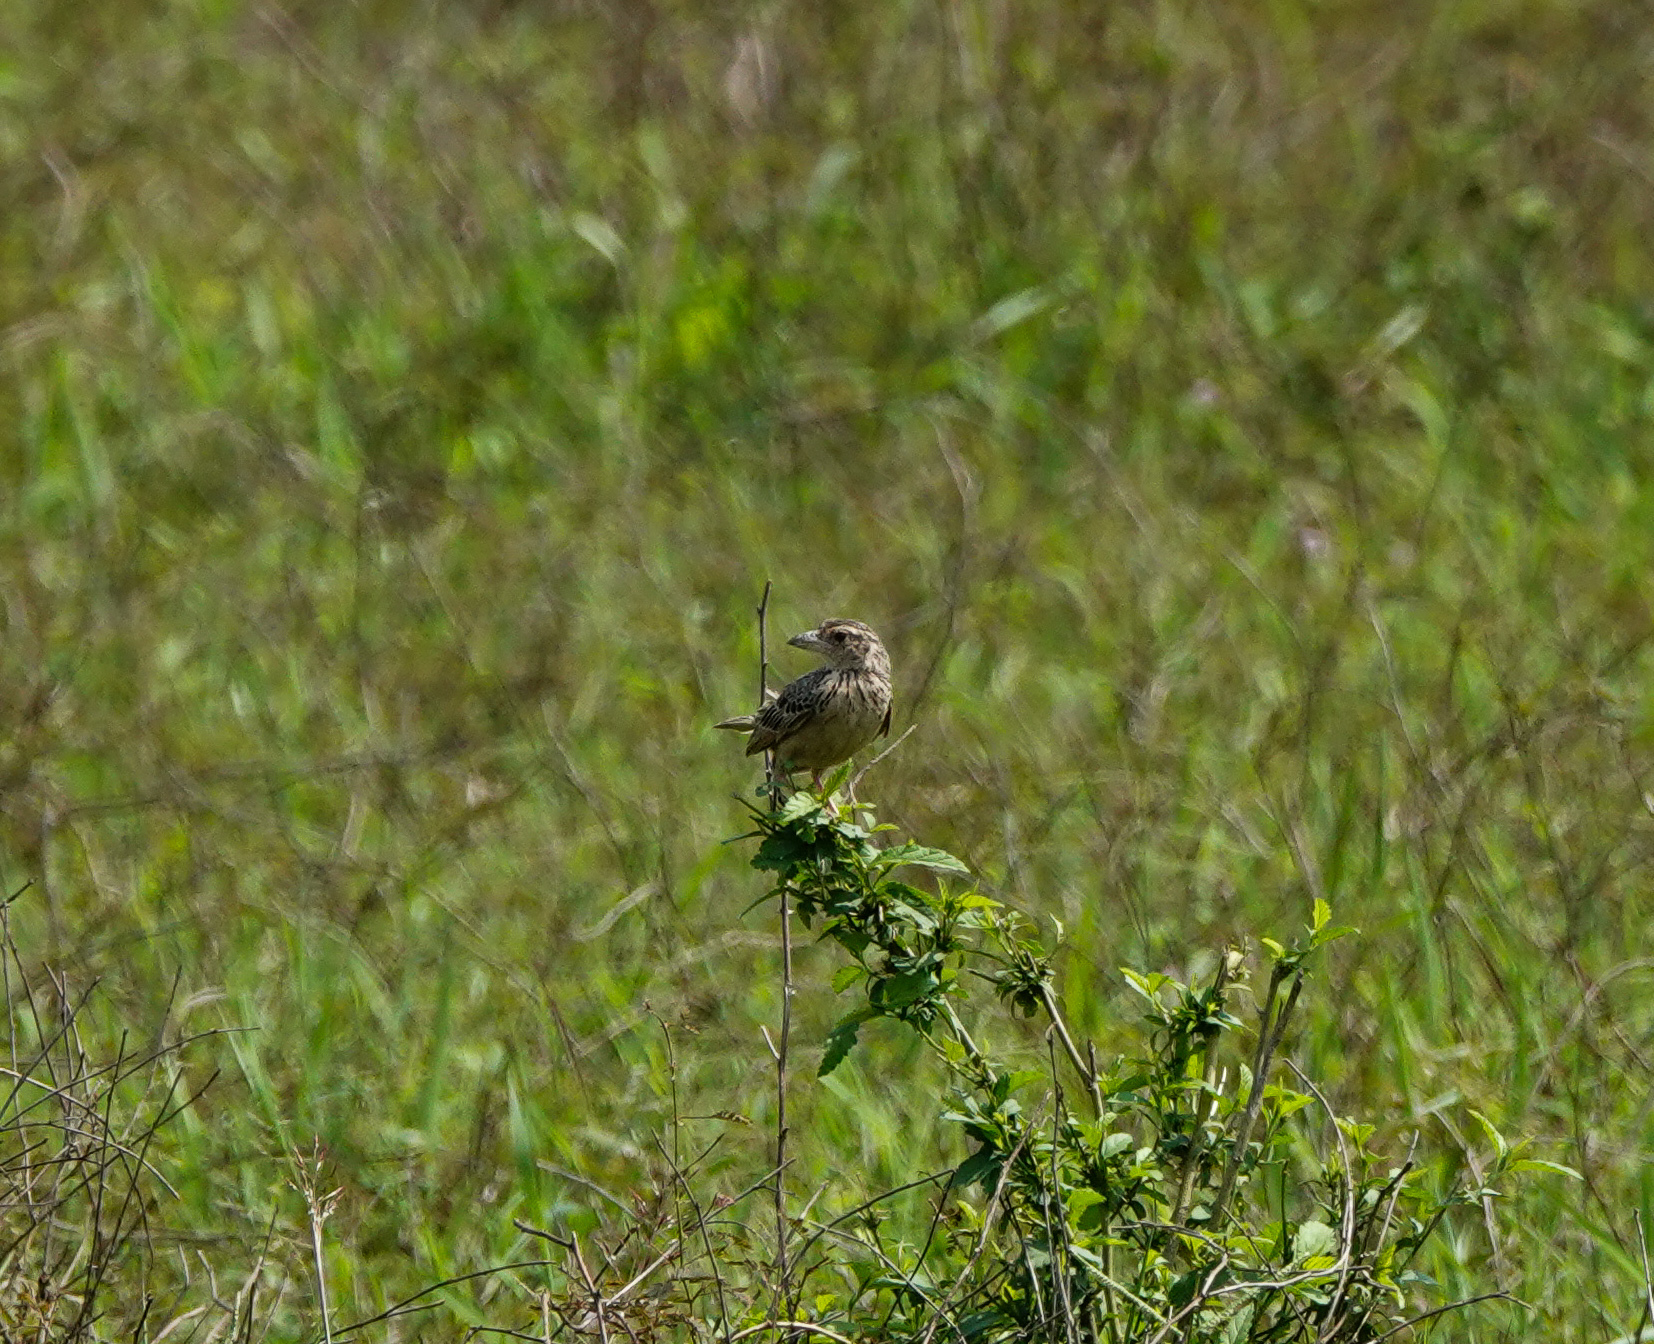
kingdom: Animalia
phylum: Chordata
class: Aves
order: Passeriformes
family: Alaudidae
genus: Mirafra
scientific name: Mirafra assamica
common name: Bengal bush lark
